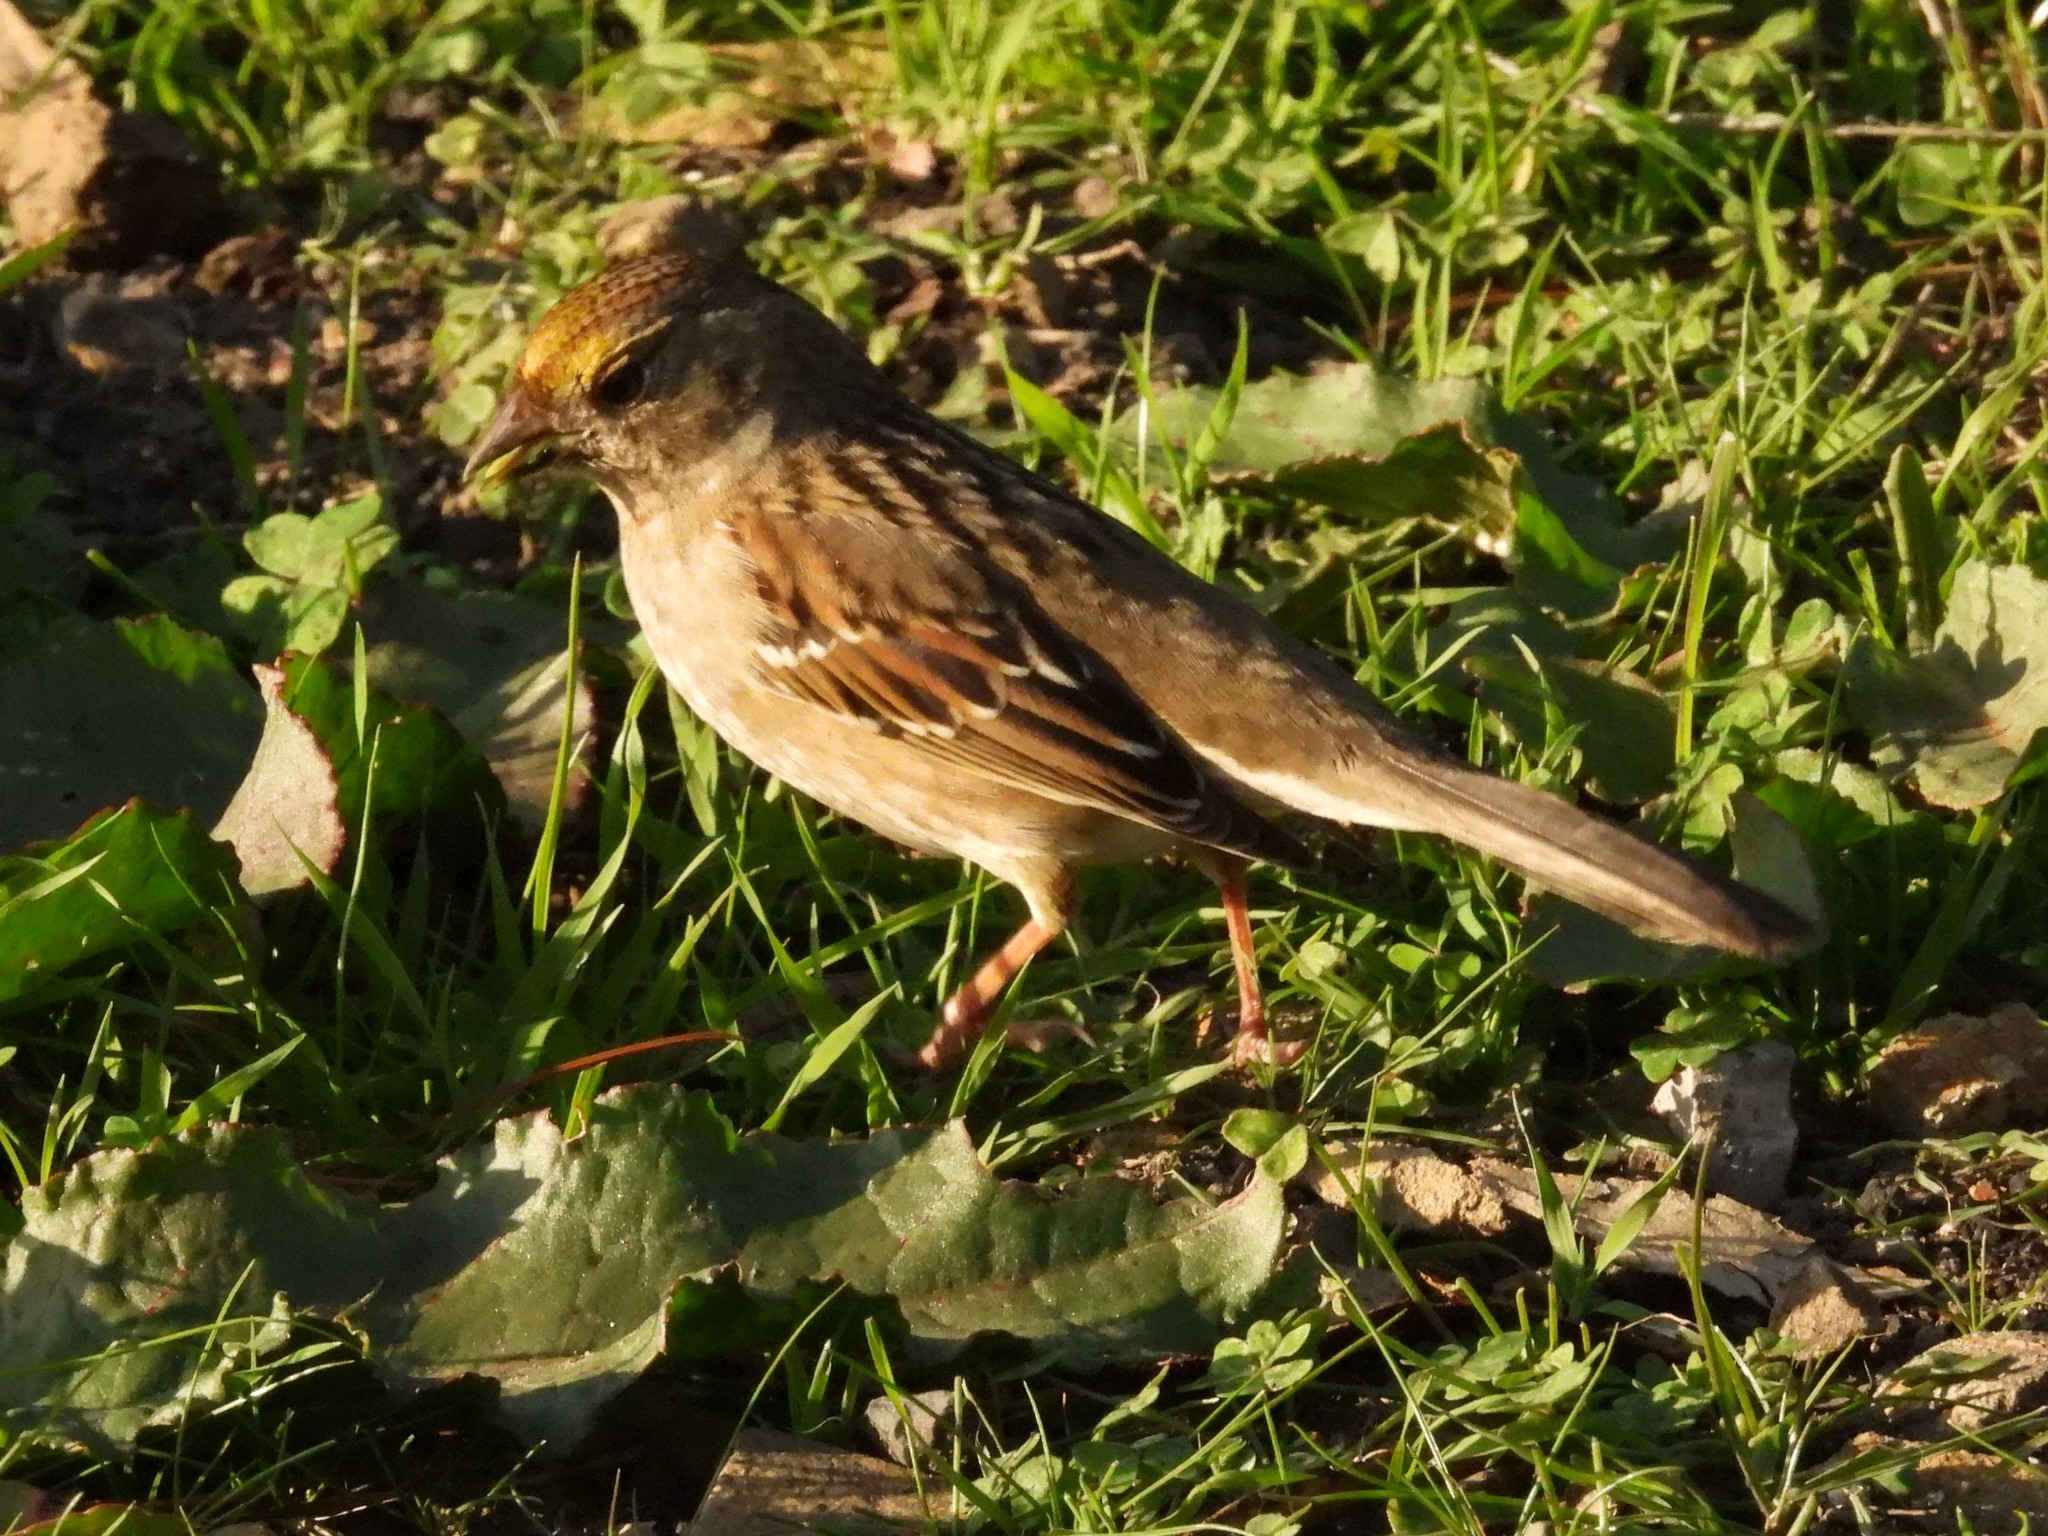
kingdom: Animalia
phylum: Chordata
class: Aves
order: Passeriformes
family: Passerellidae
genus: Zonotrichia
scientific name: Zonotrichia atricapilla
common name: Golden-crowned sparrow
